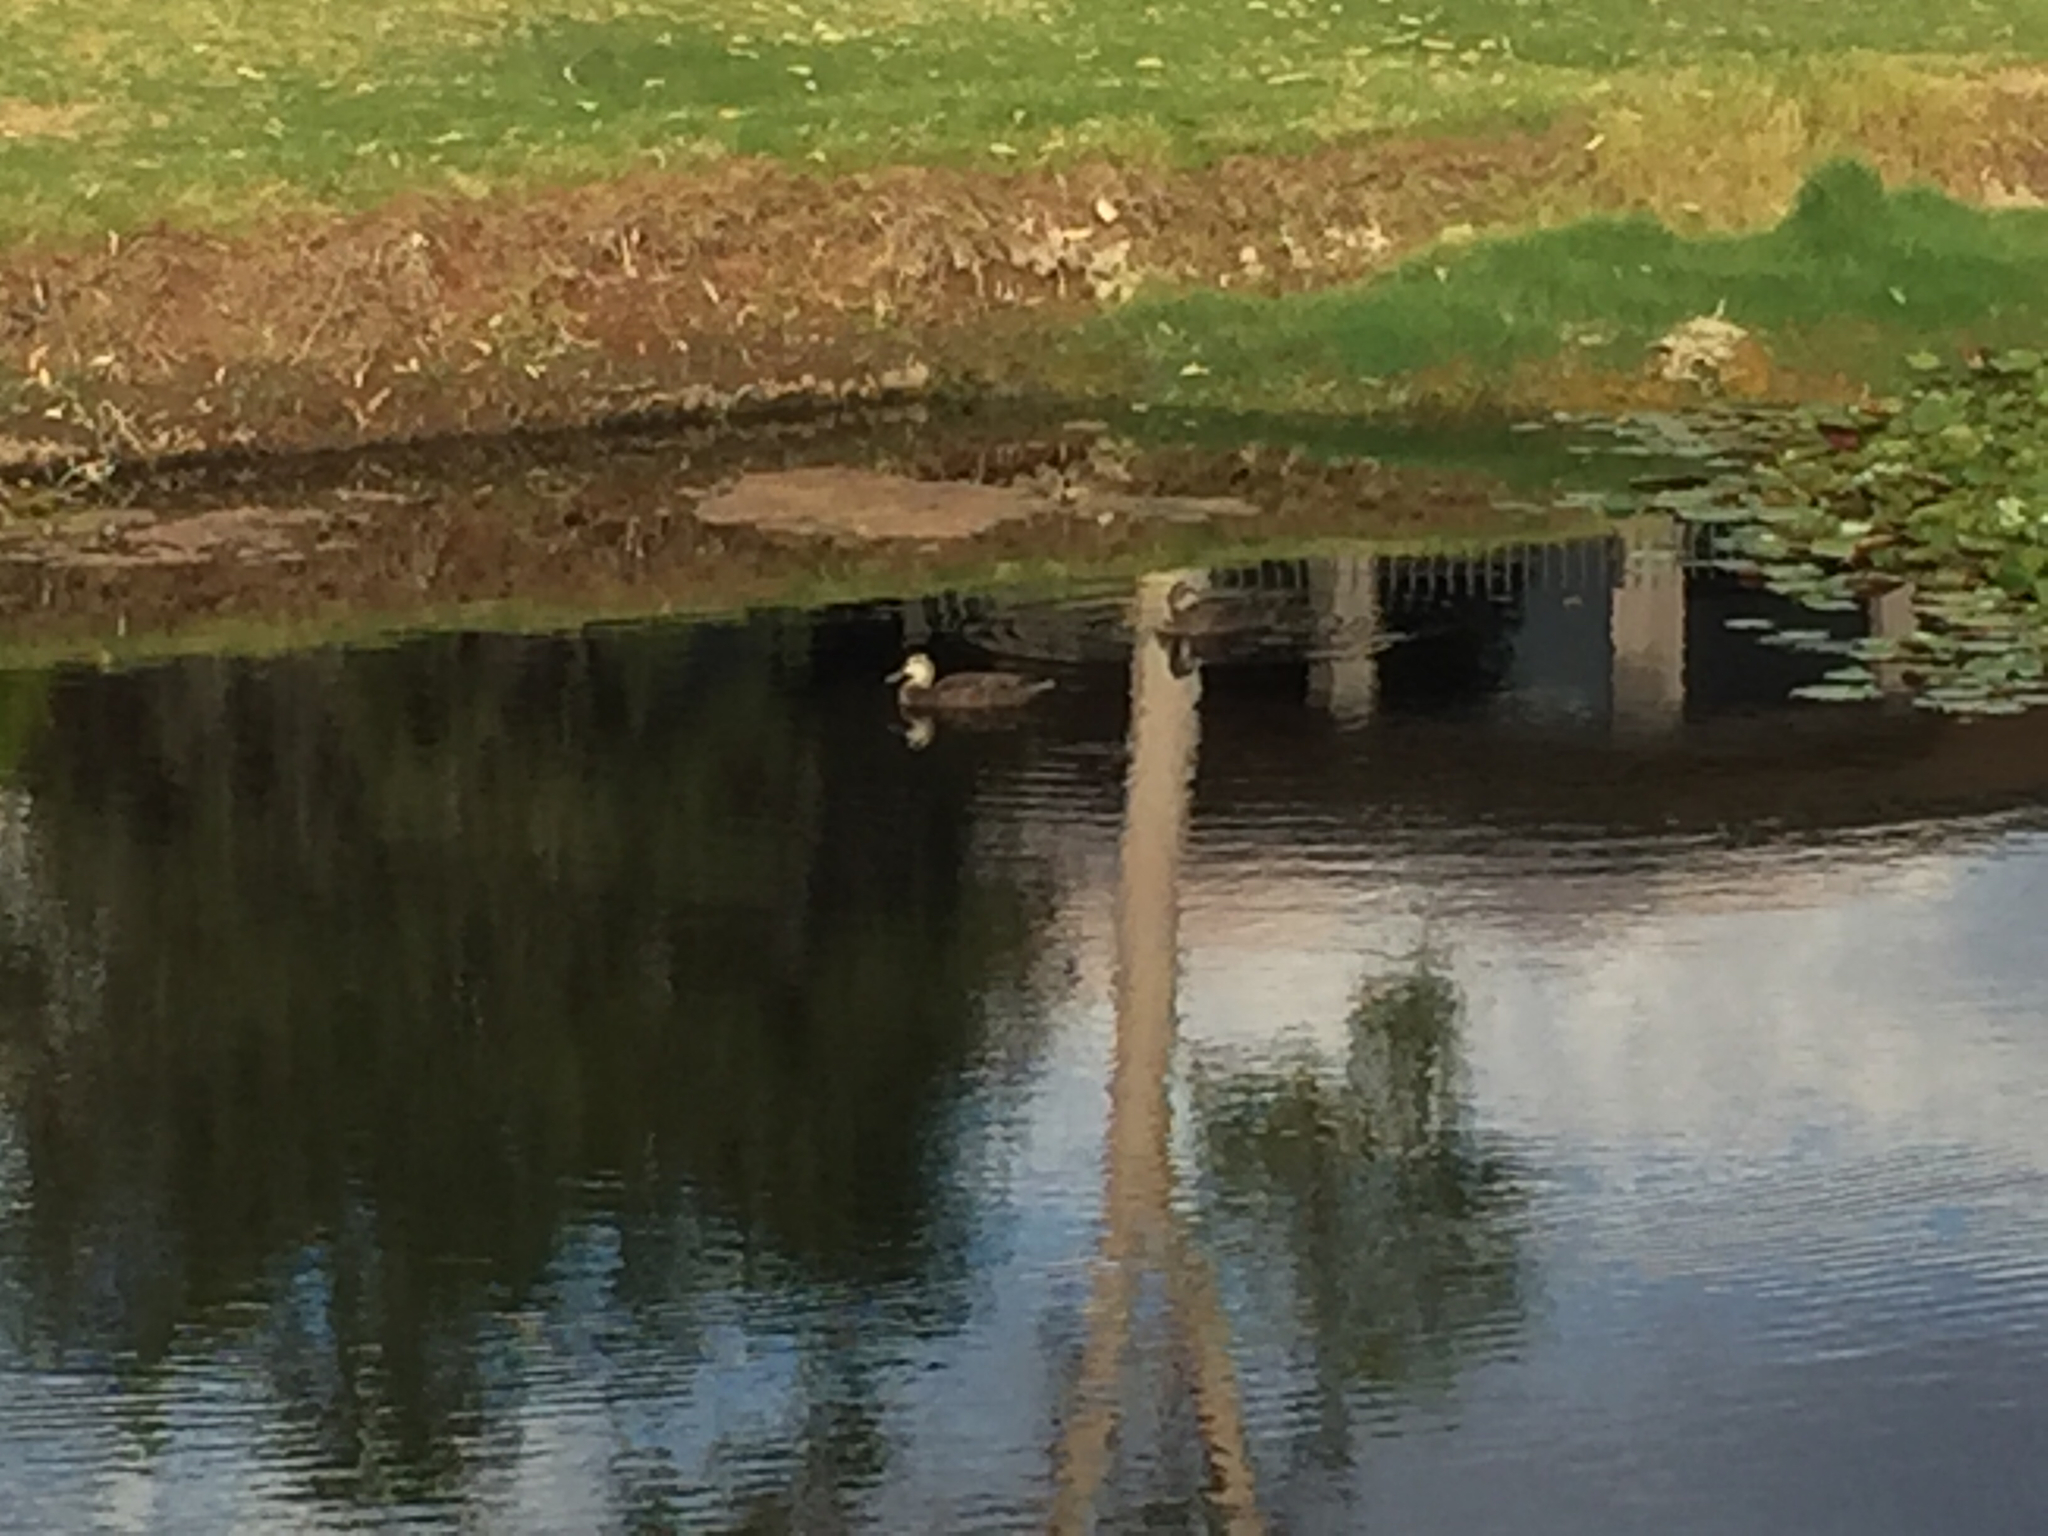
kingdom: Animalia
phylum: Chordata
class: Aves
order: Anseriformes
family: Anatidae
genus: Anas
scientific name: Anas superciliosa
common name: Pacific black duck
